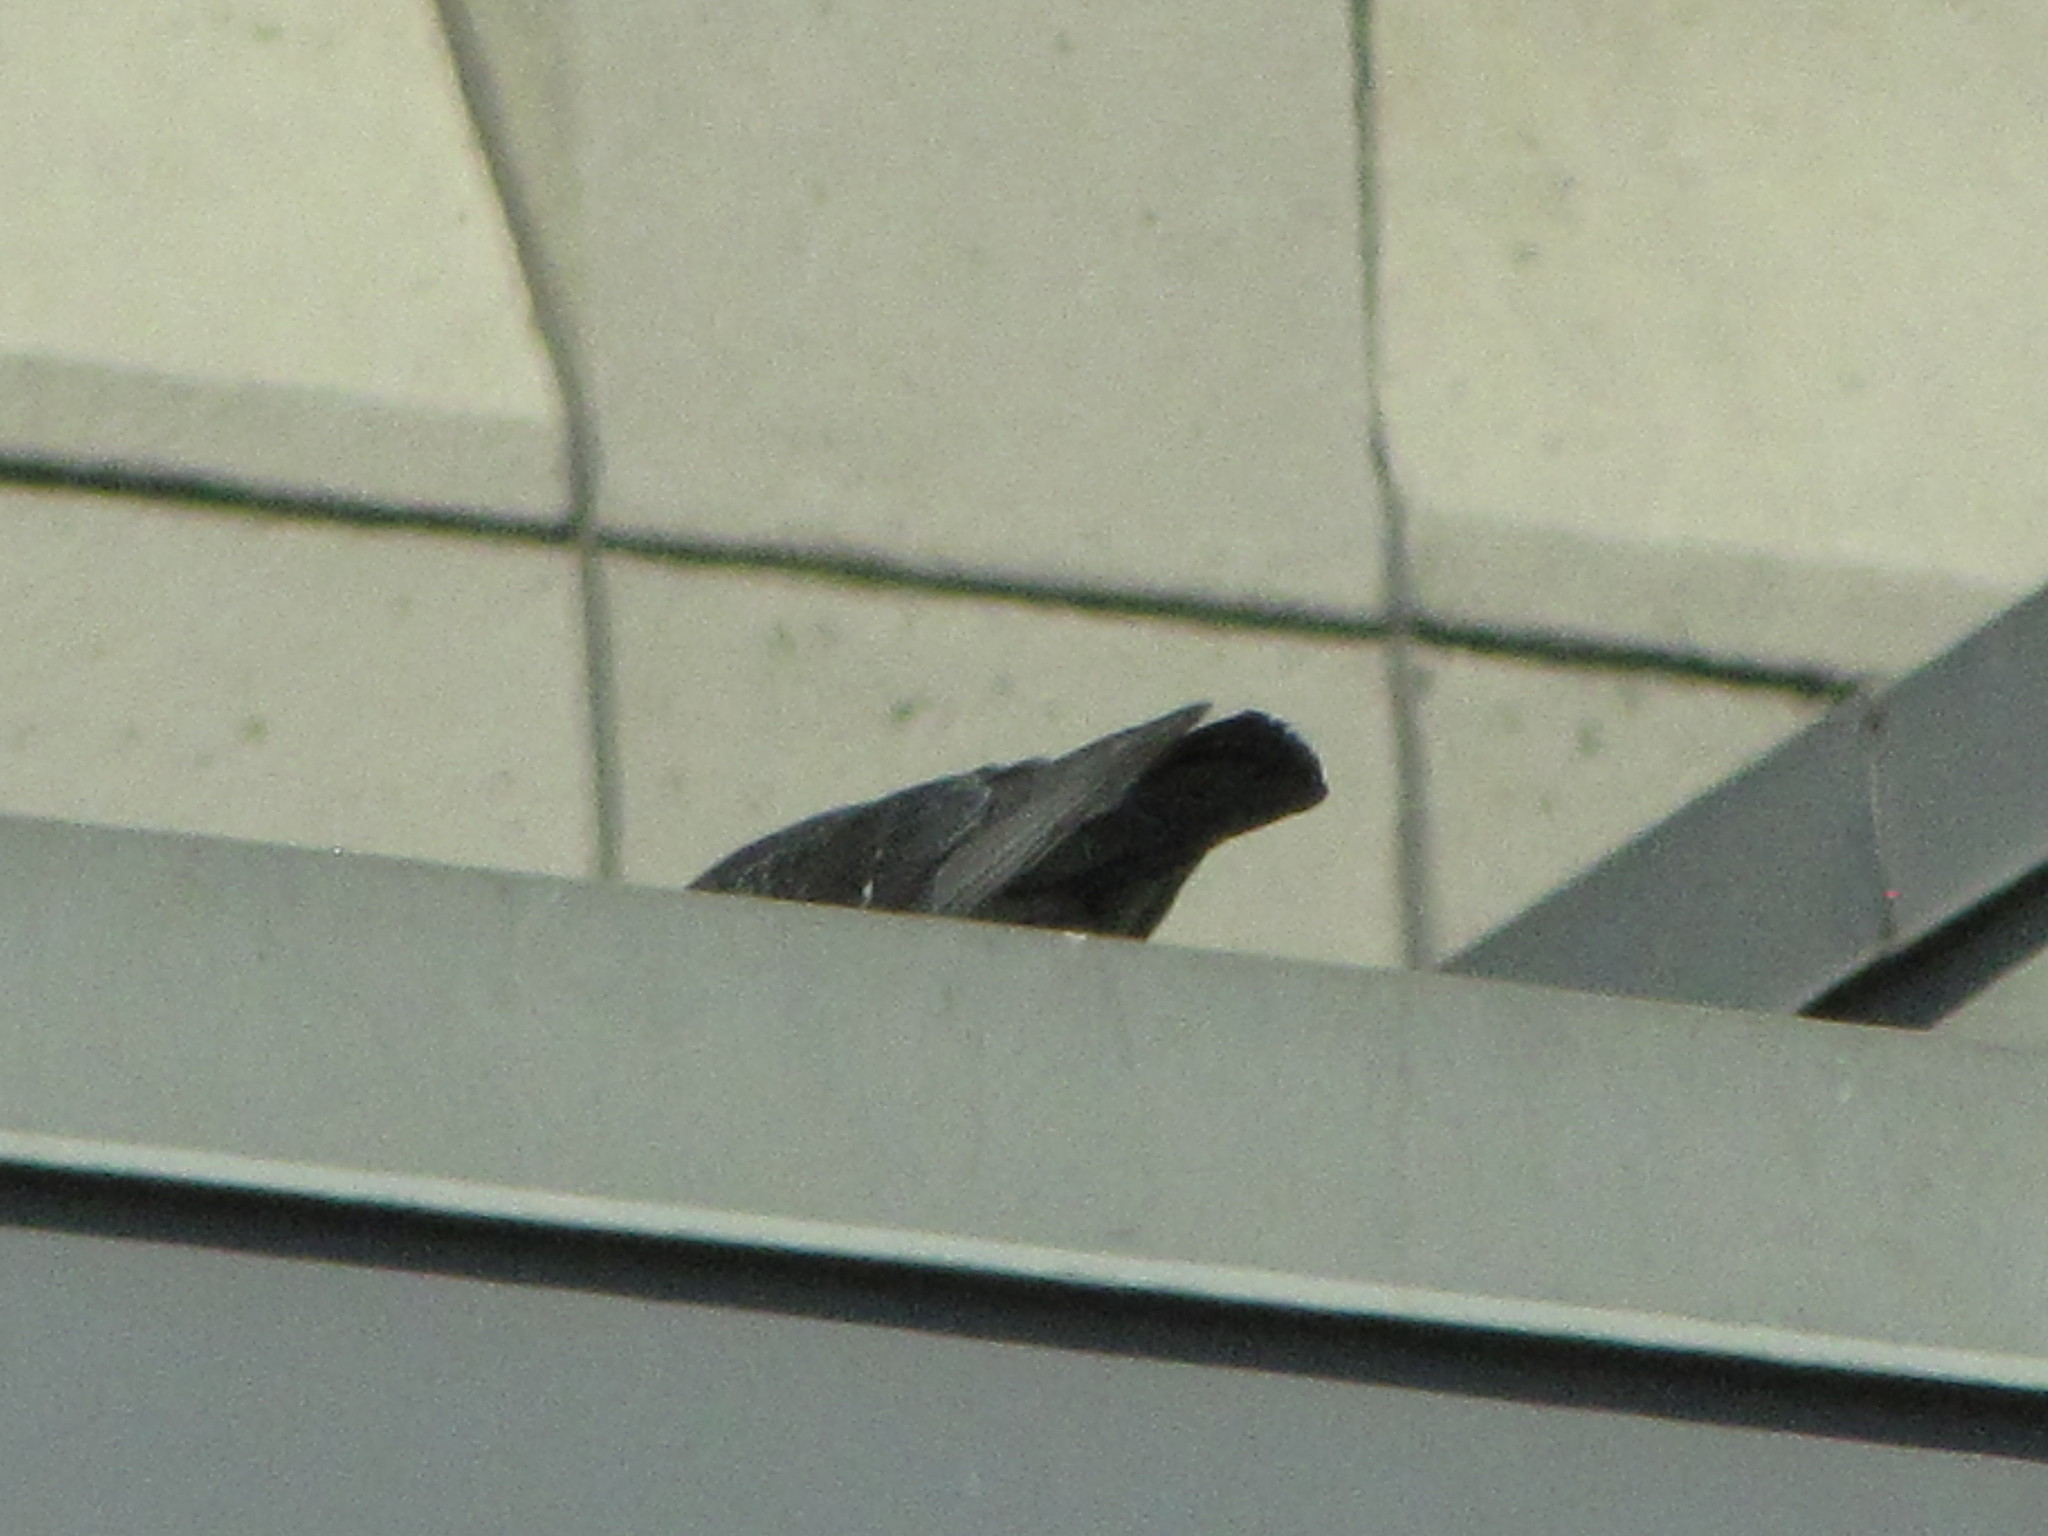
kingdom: Animalia
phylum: Chordata
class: Aves
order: Columbiformes
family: Columbidae
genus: Columba
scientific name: Columba livia
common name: Rock pigeon
